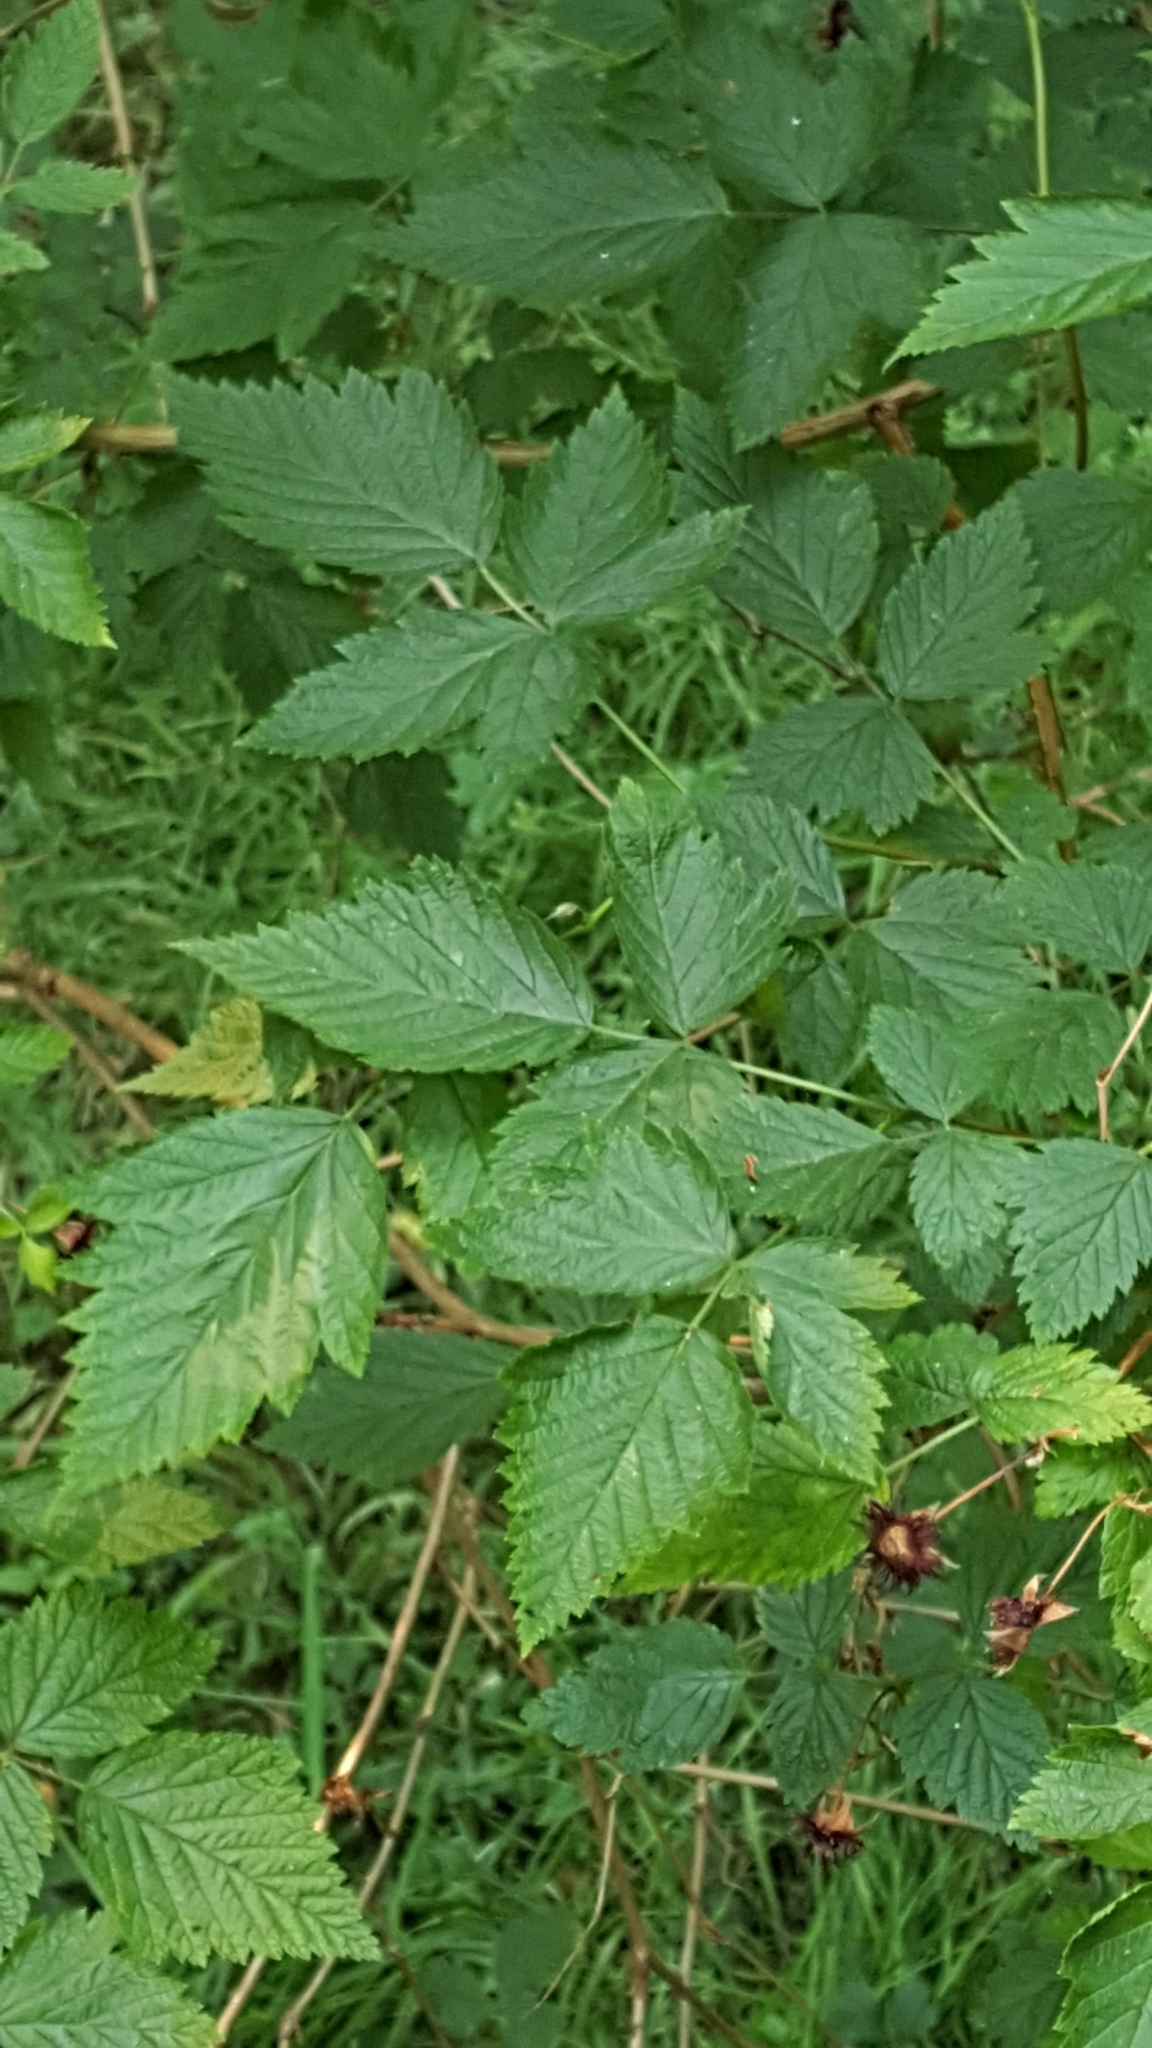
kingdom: Plantae
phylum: Tracheophyta
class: Magnoliopsida
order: Rosales
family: Rosaceae
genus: Rubus
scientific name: Rubus spectabilis
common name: Salmonberry
